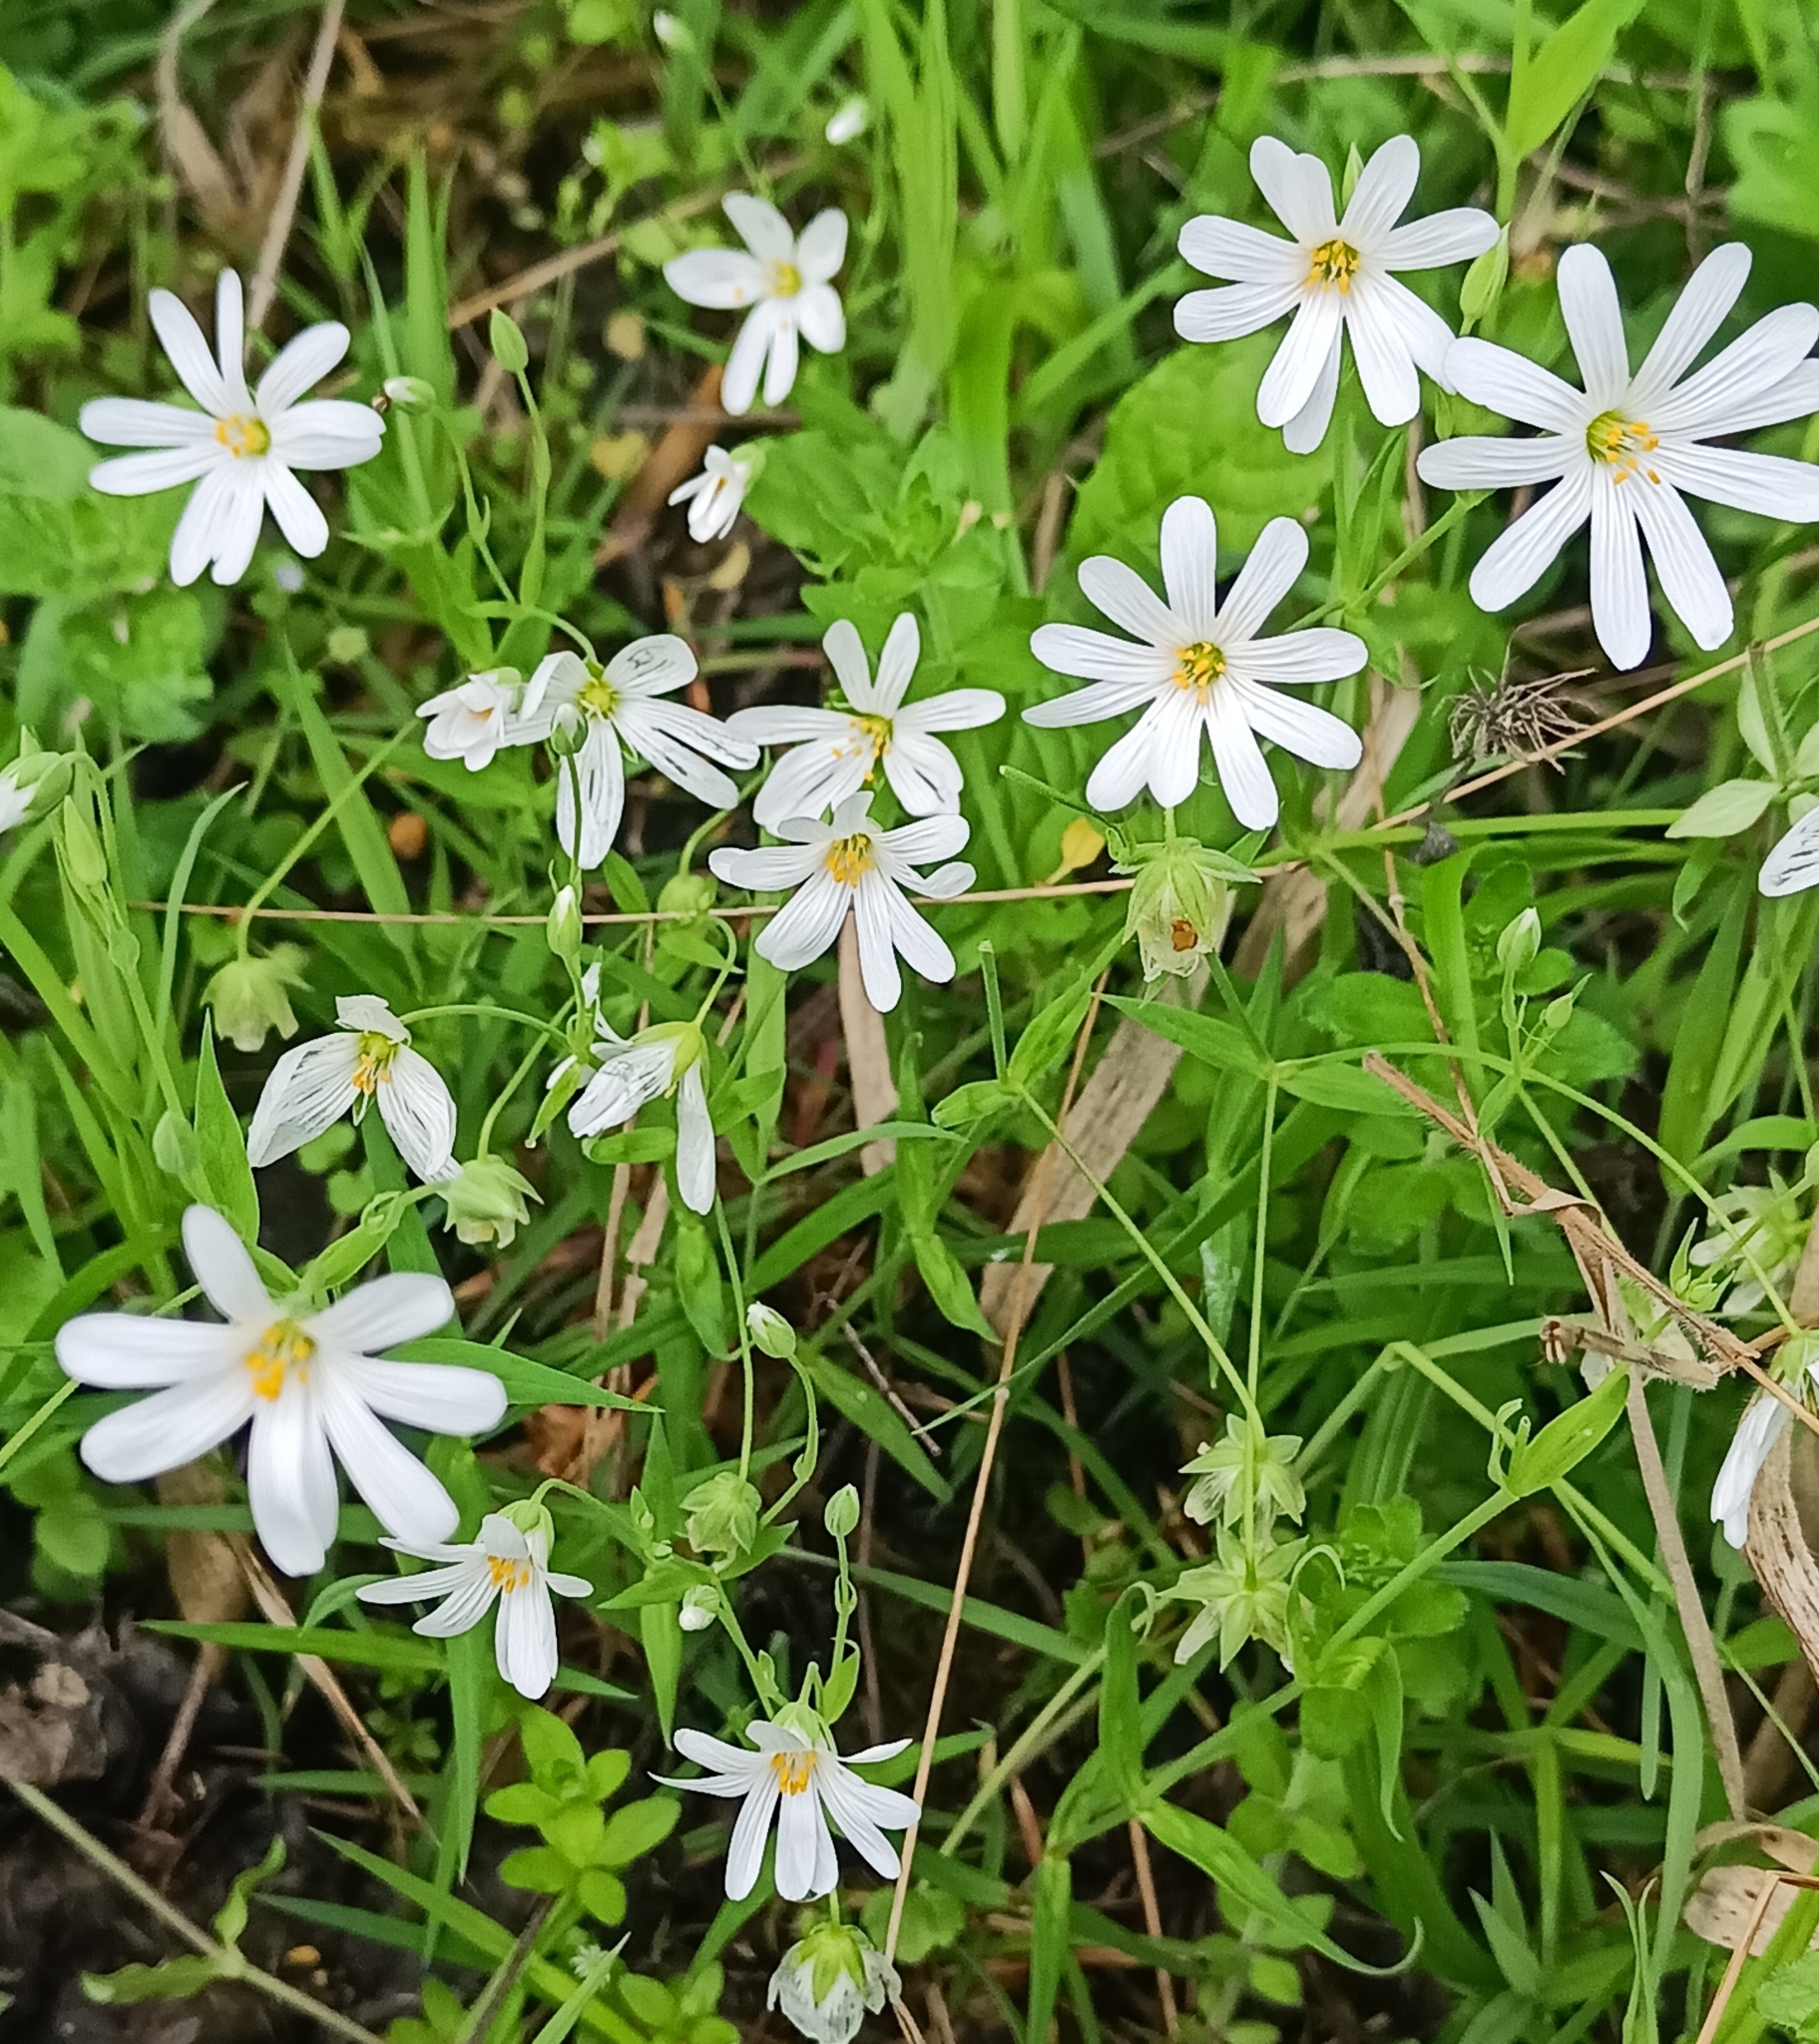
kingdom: Plantae
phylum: Tracheophyta
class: Magnoliopsida
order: Caryophyllales
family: Caryophyllaceae
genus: Rabelera
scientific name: Rabelera holostea
